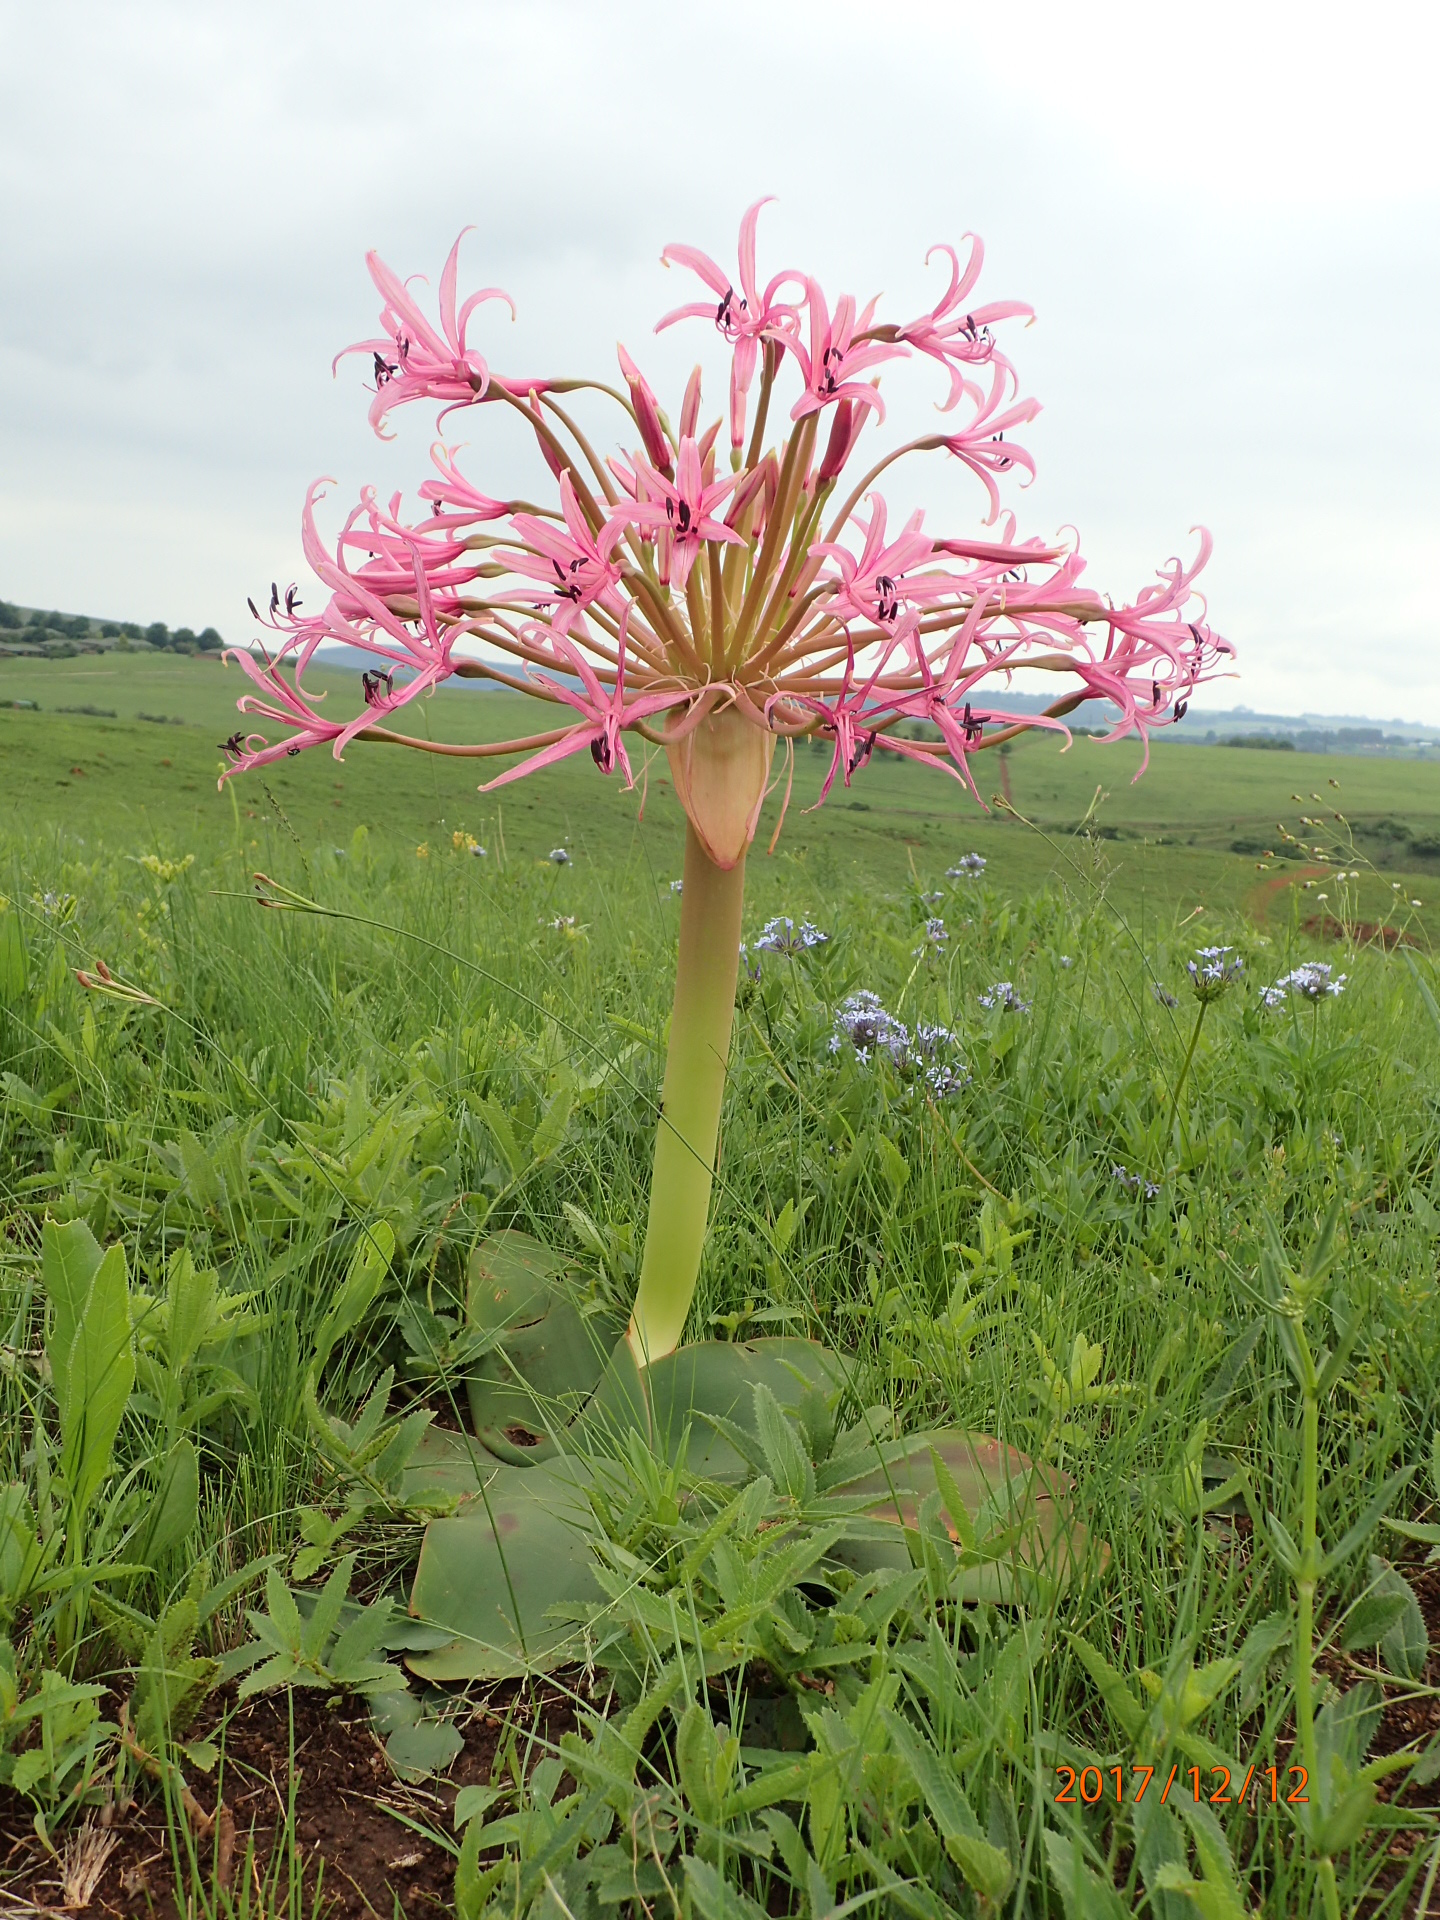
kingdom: Plantae
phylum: Tracheophyta
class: Liliopsida
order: Asparagales
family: Amaryllidaceae
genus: Brunsvigia
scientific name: Brunsvigia radulosa
